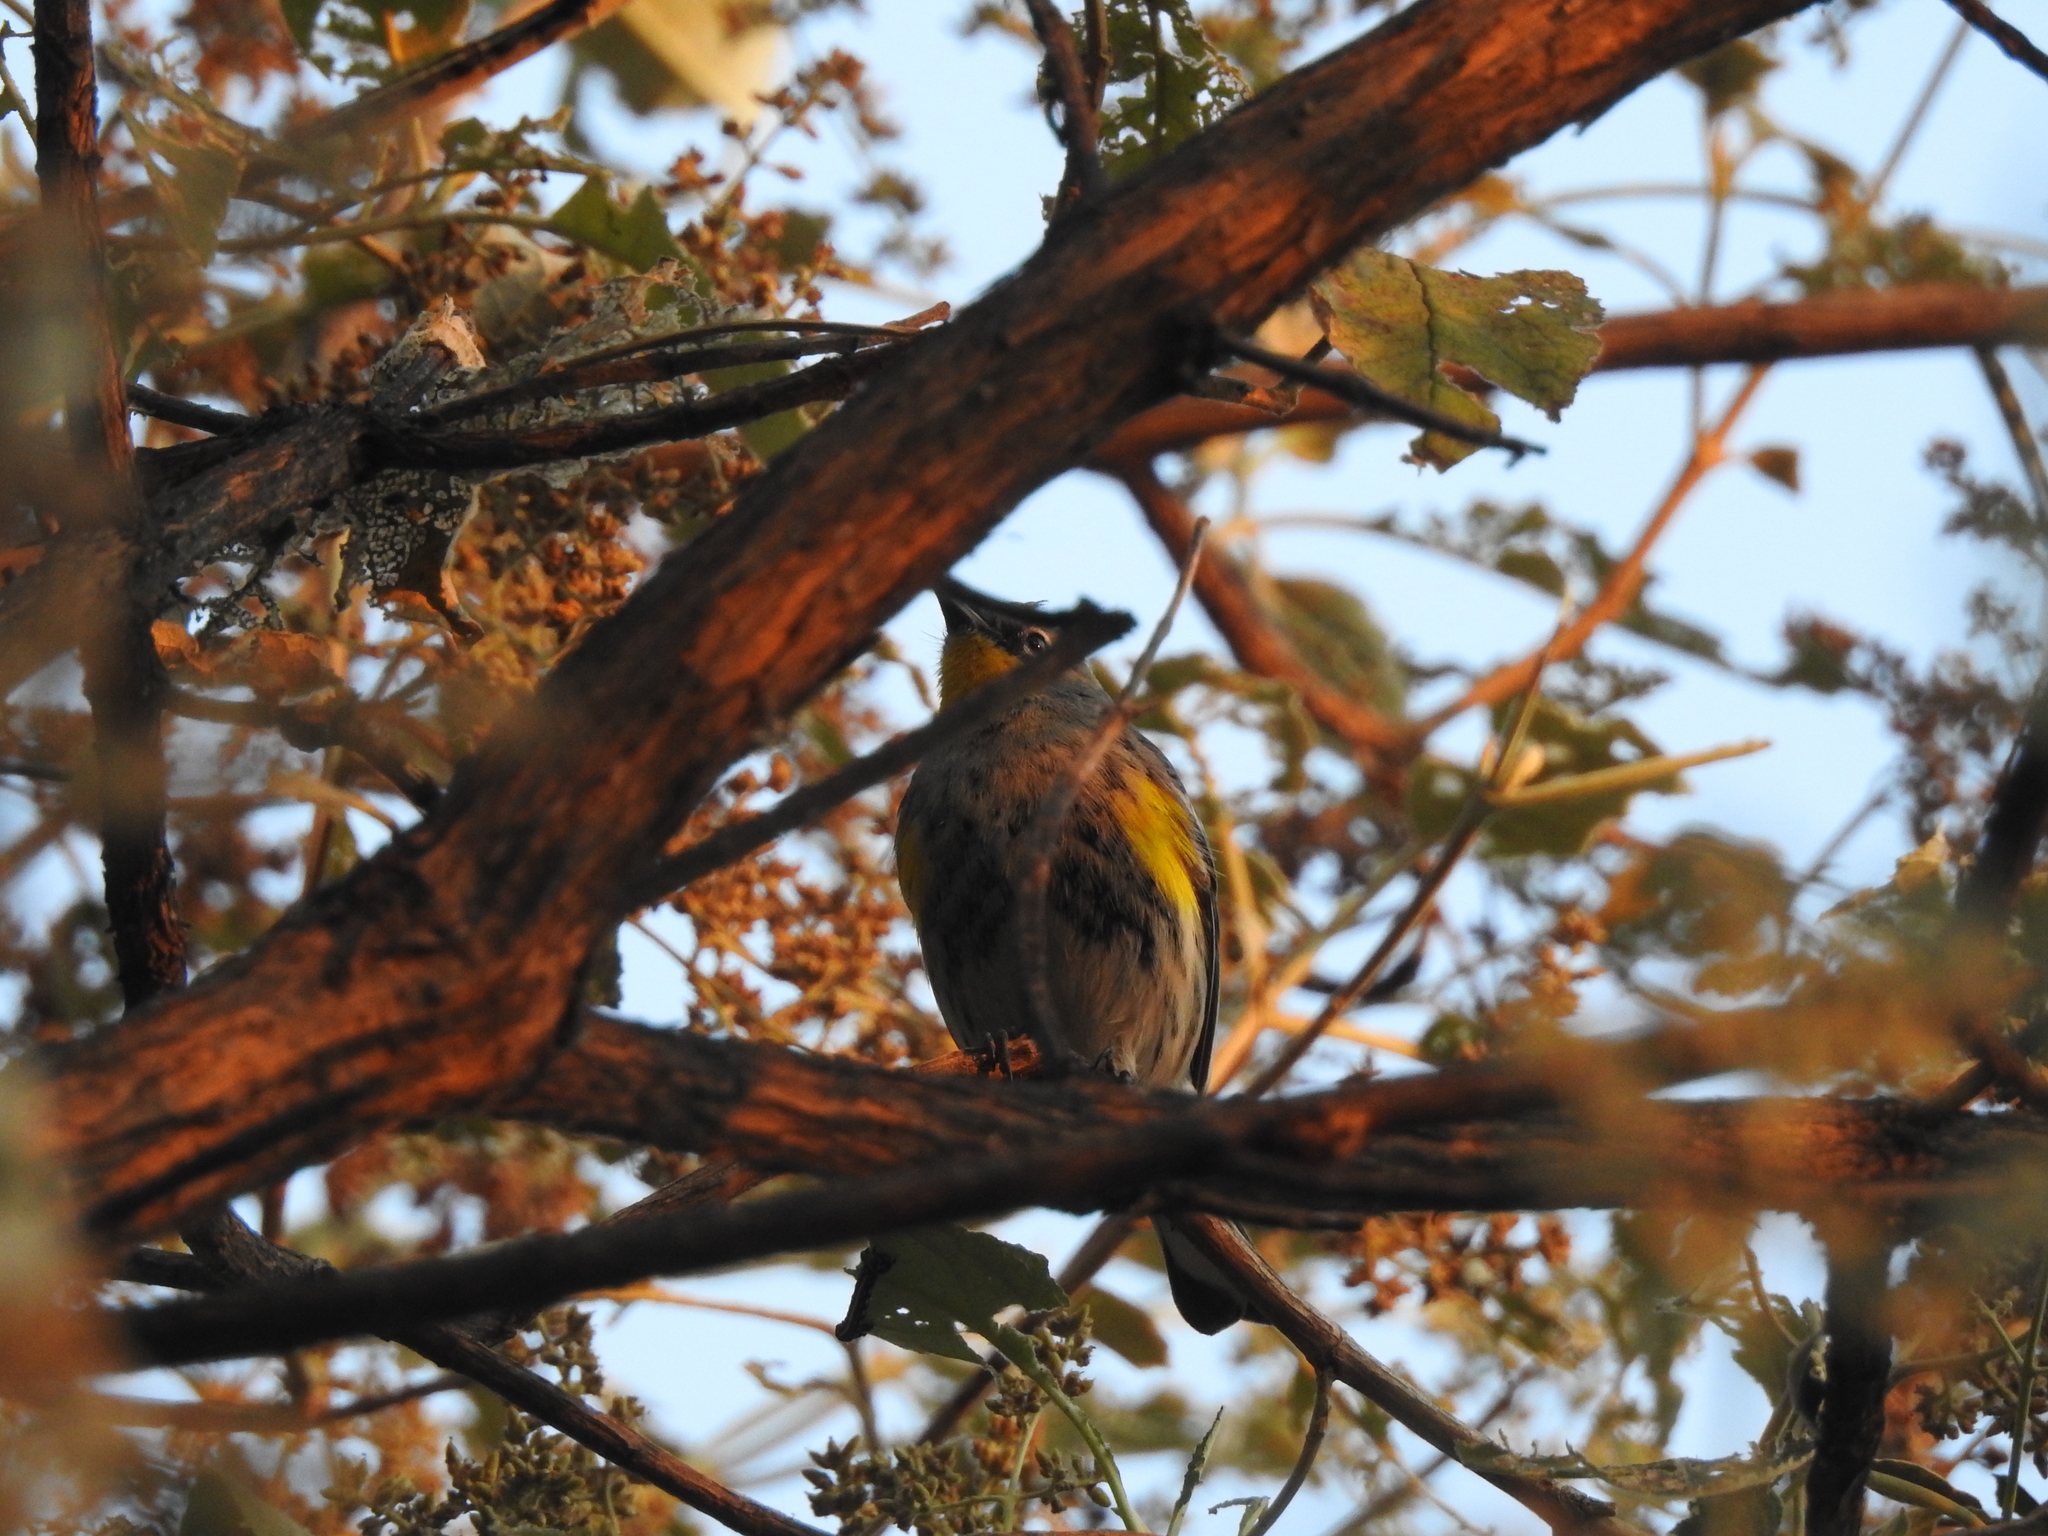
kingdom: Animalia
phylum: Chordata
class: Aves
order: Passeriformes
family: Parulidae
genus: Setophaga
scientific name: Setophaga coronata
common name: Myrtle warbler
